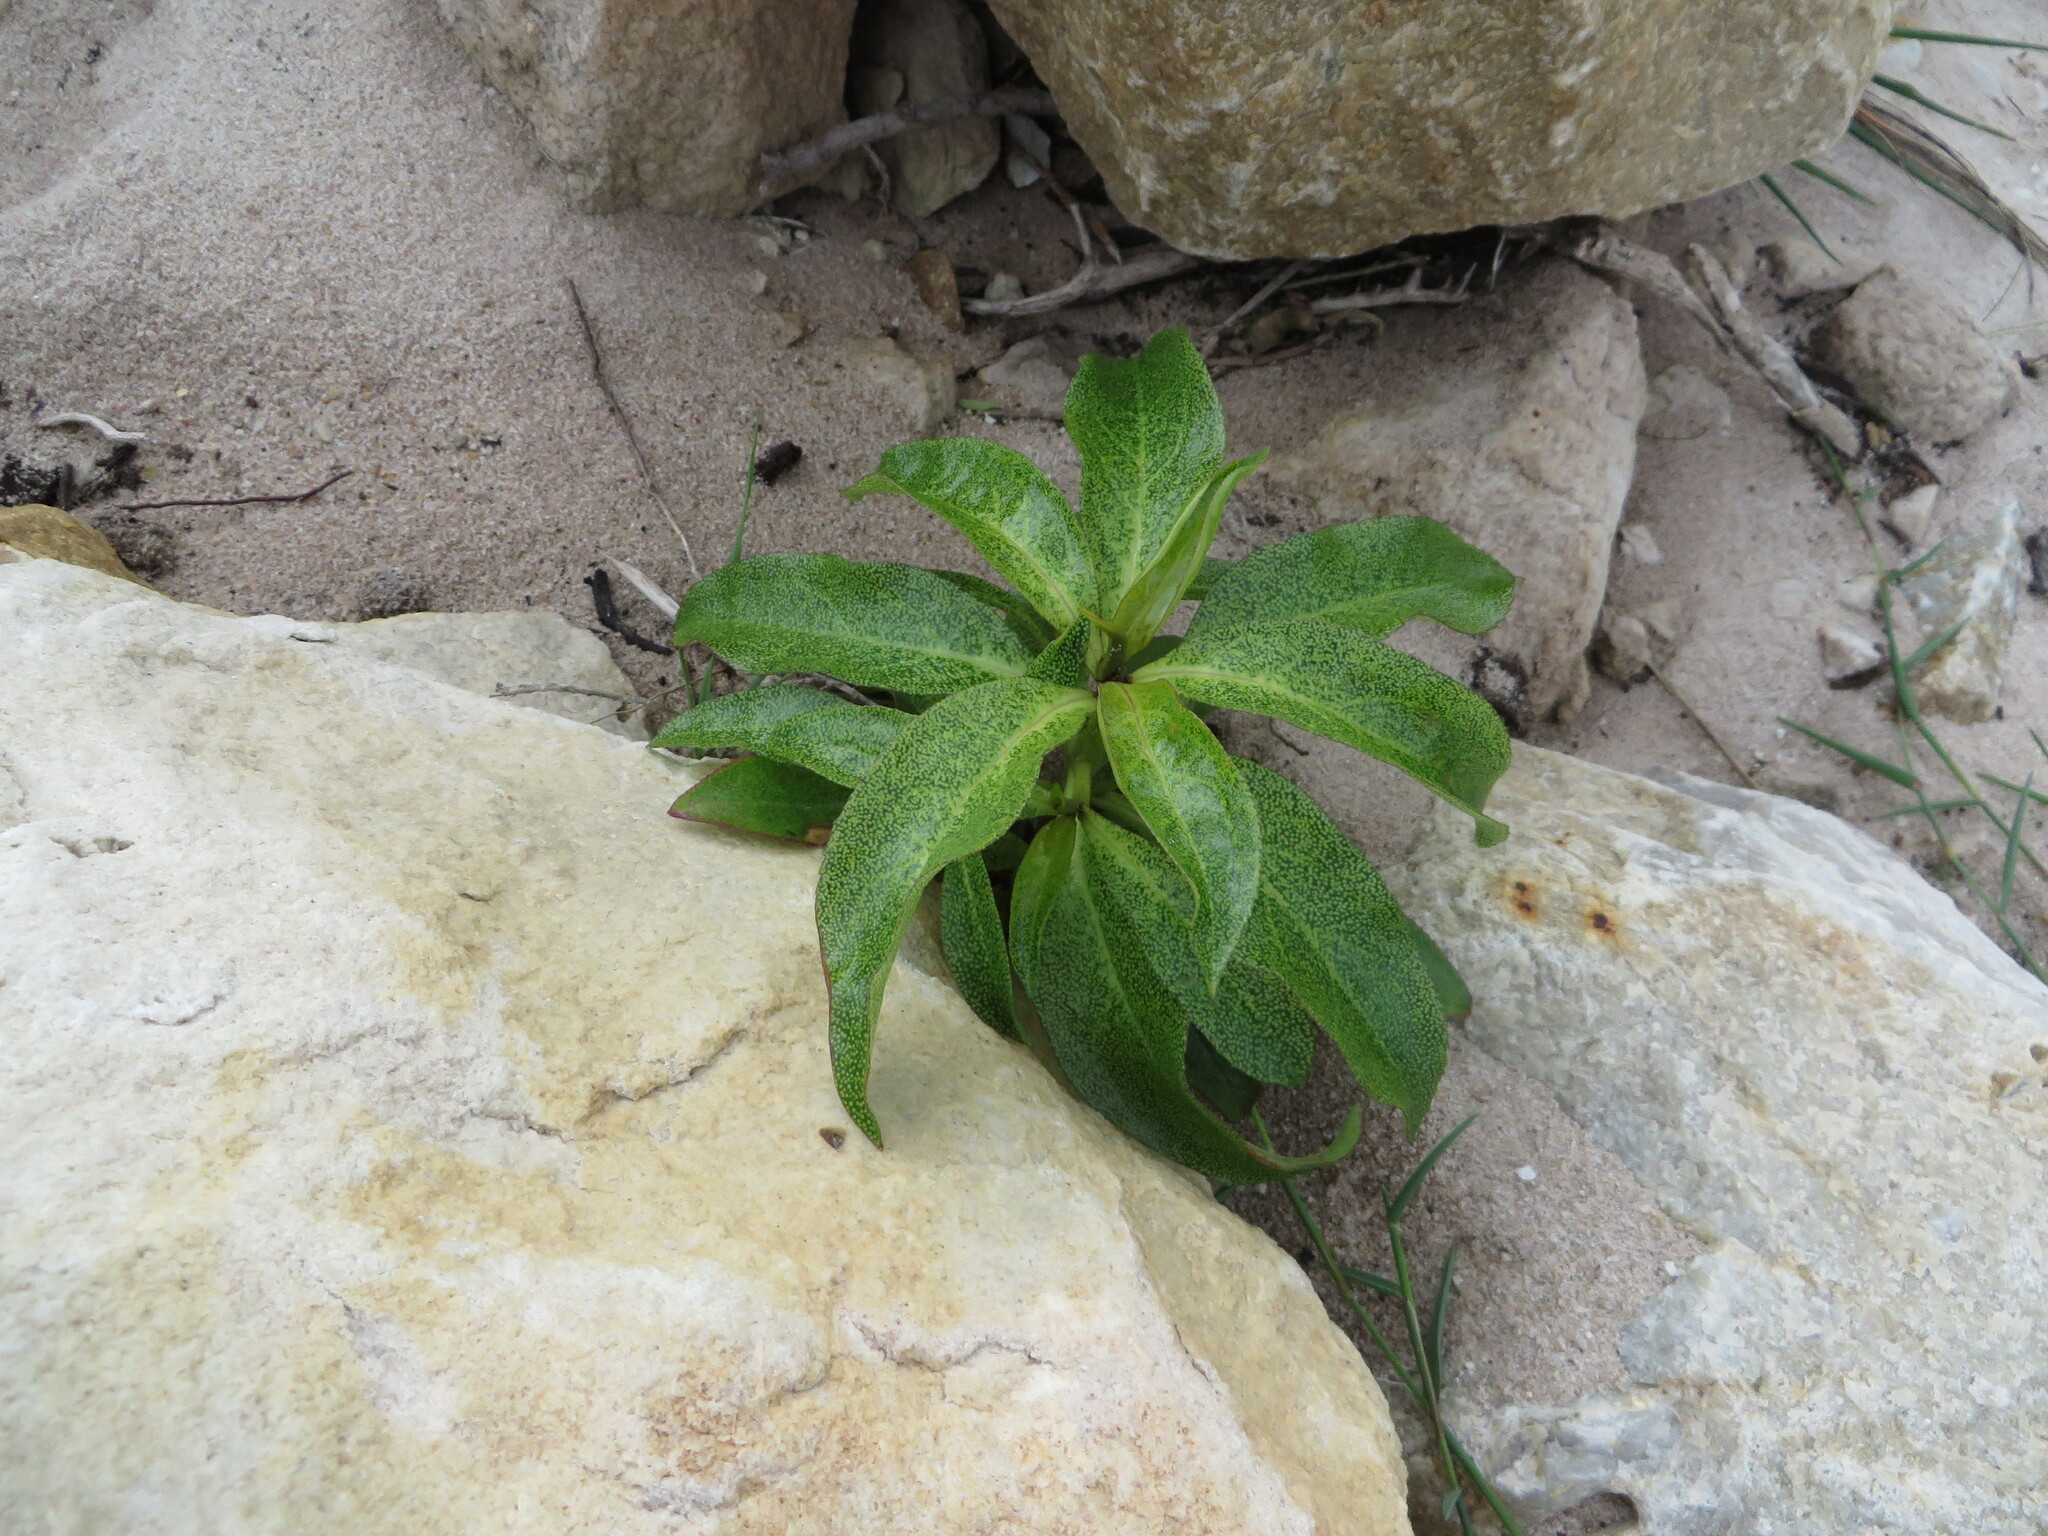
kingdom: Plantae
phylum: Tracheophyta
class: Magnoliopsida
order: Lamiales
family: Scrophulariaceae
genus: Myoporum
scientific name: Myoporum laetum
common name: Ngaio tree
